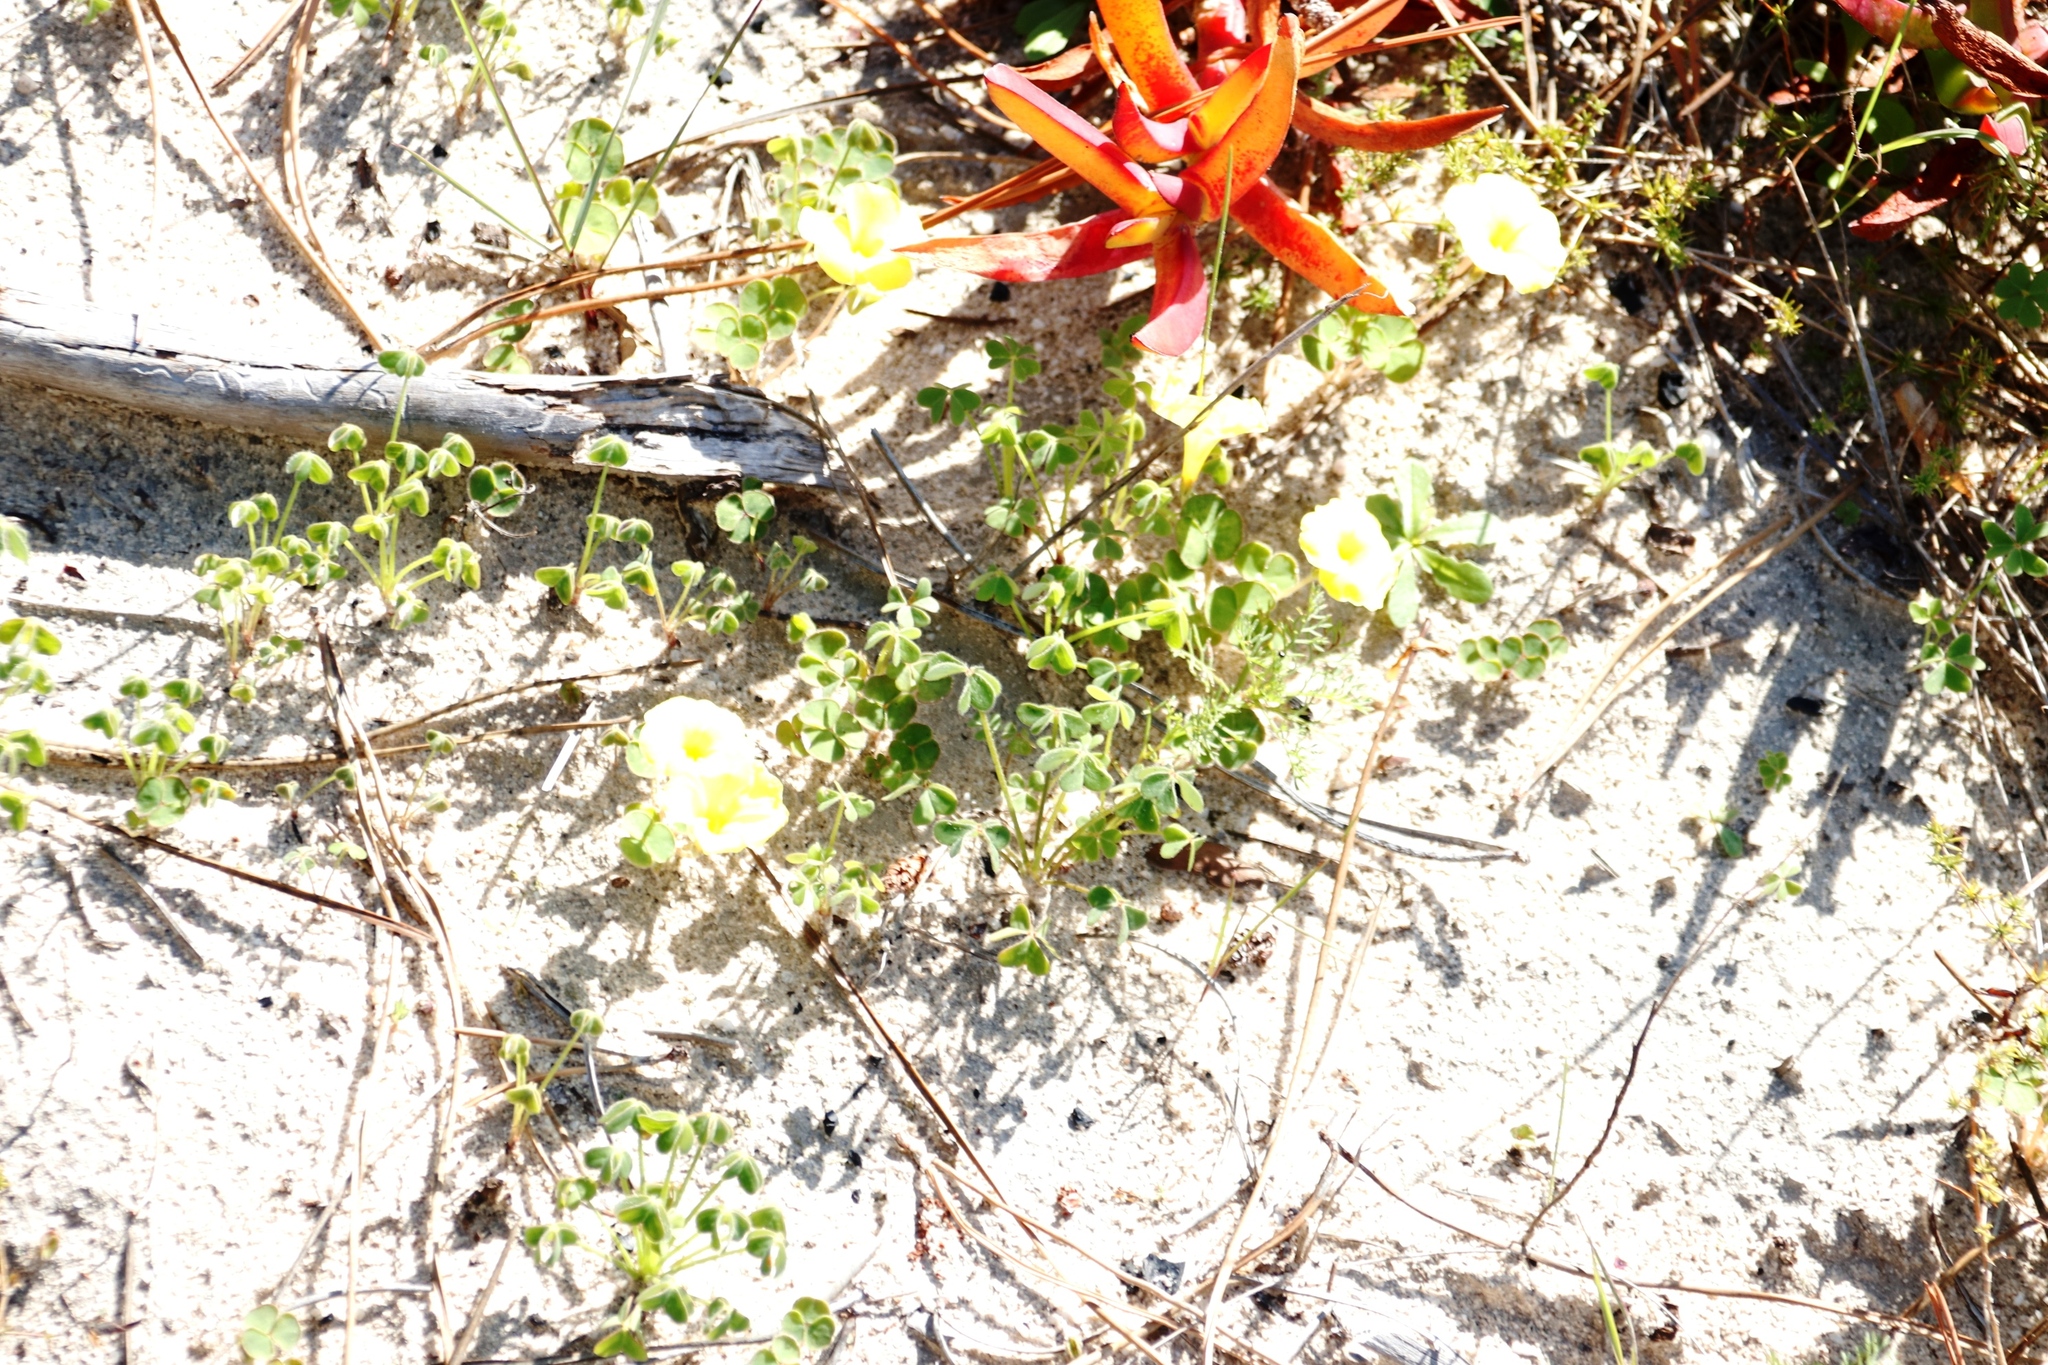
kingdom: Plantae
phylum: Tracheophyta
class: Magnoliopsida
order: Oxalidales
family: Oxalidaceae
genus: Oxalis
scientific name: Oxalis luteola
